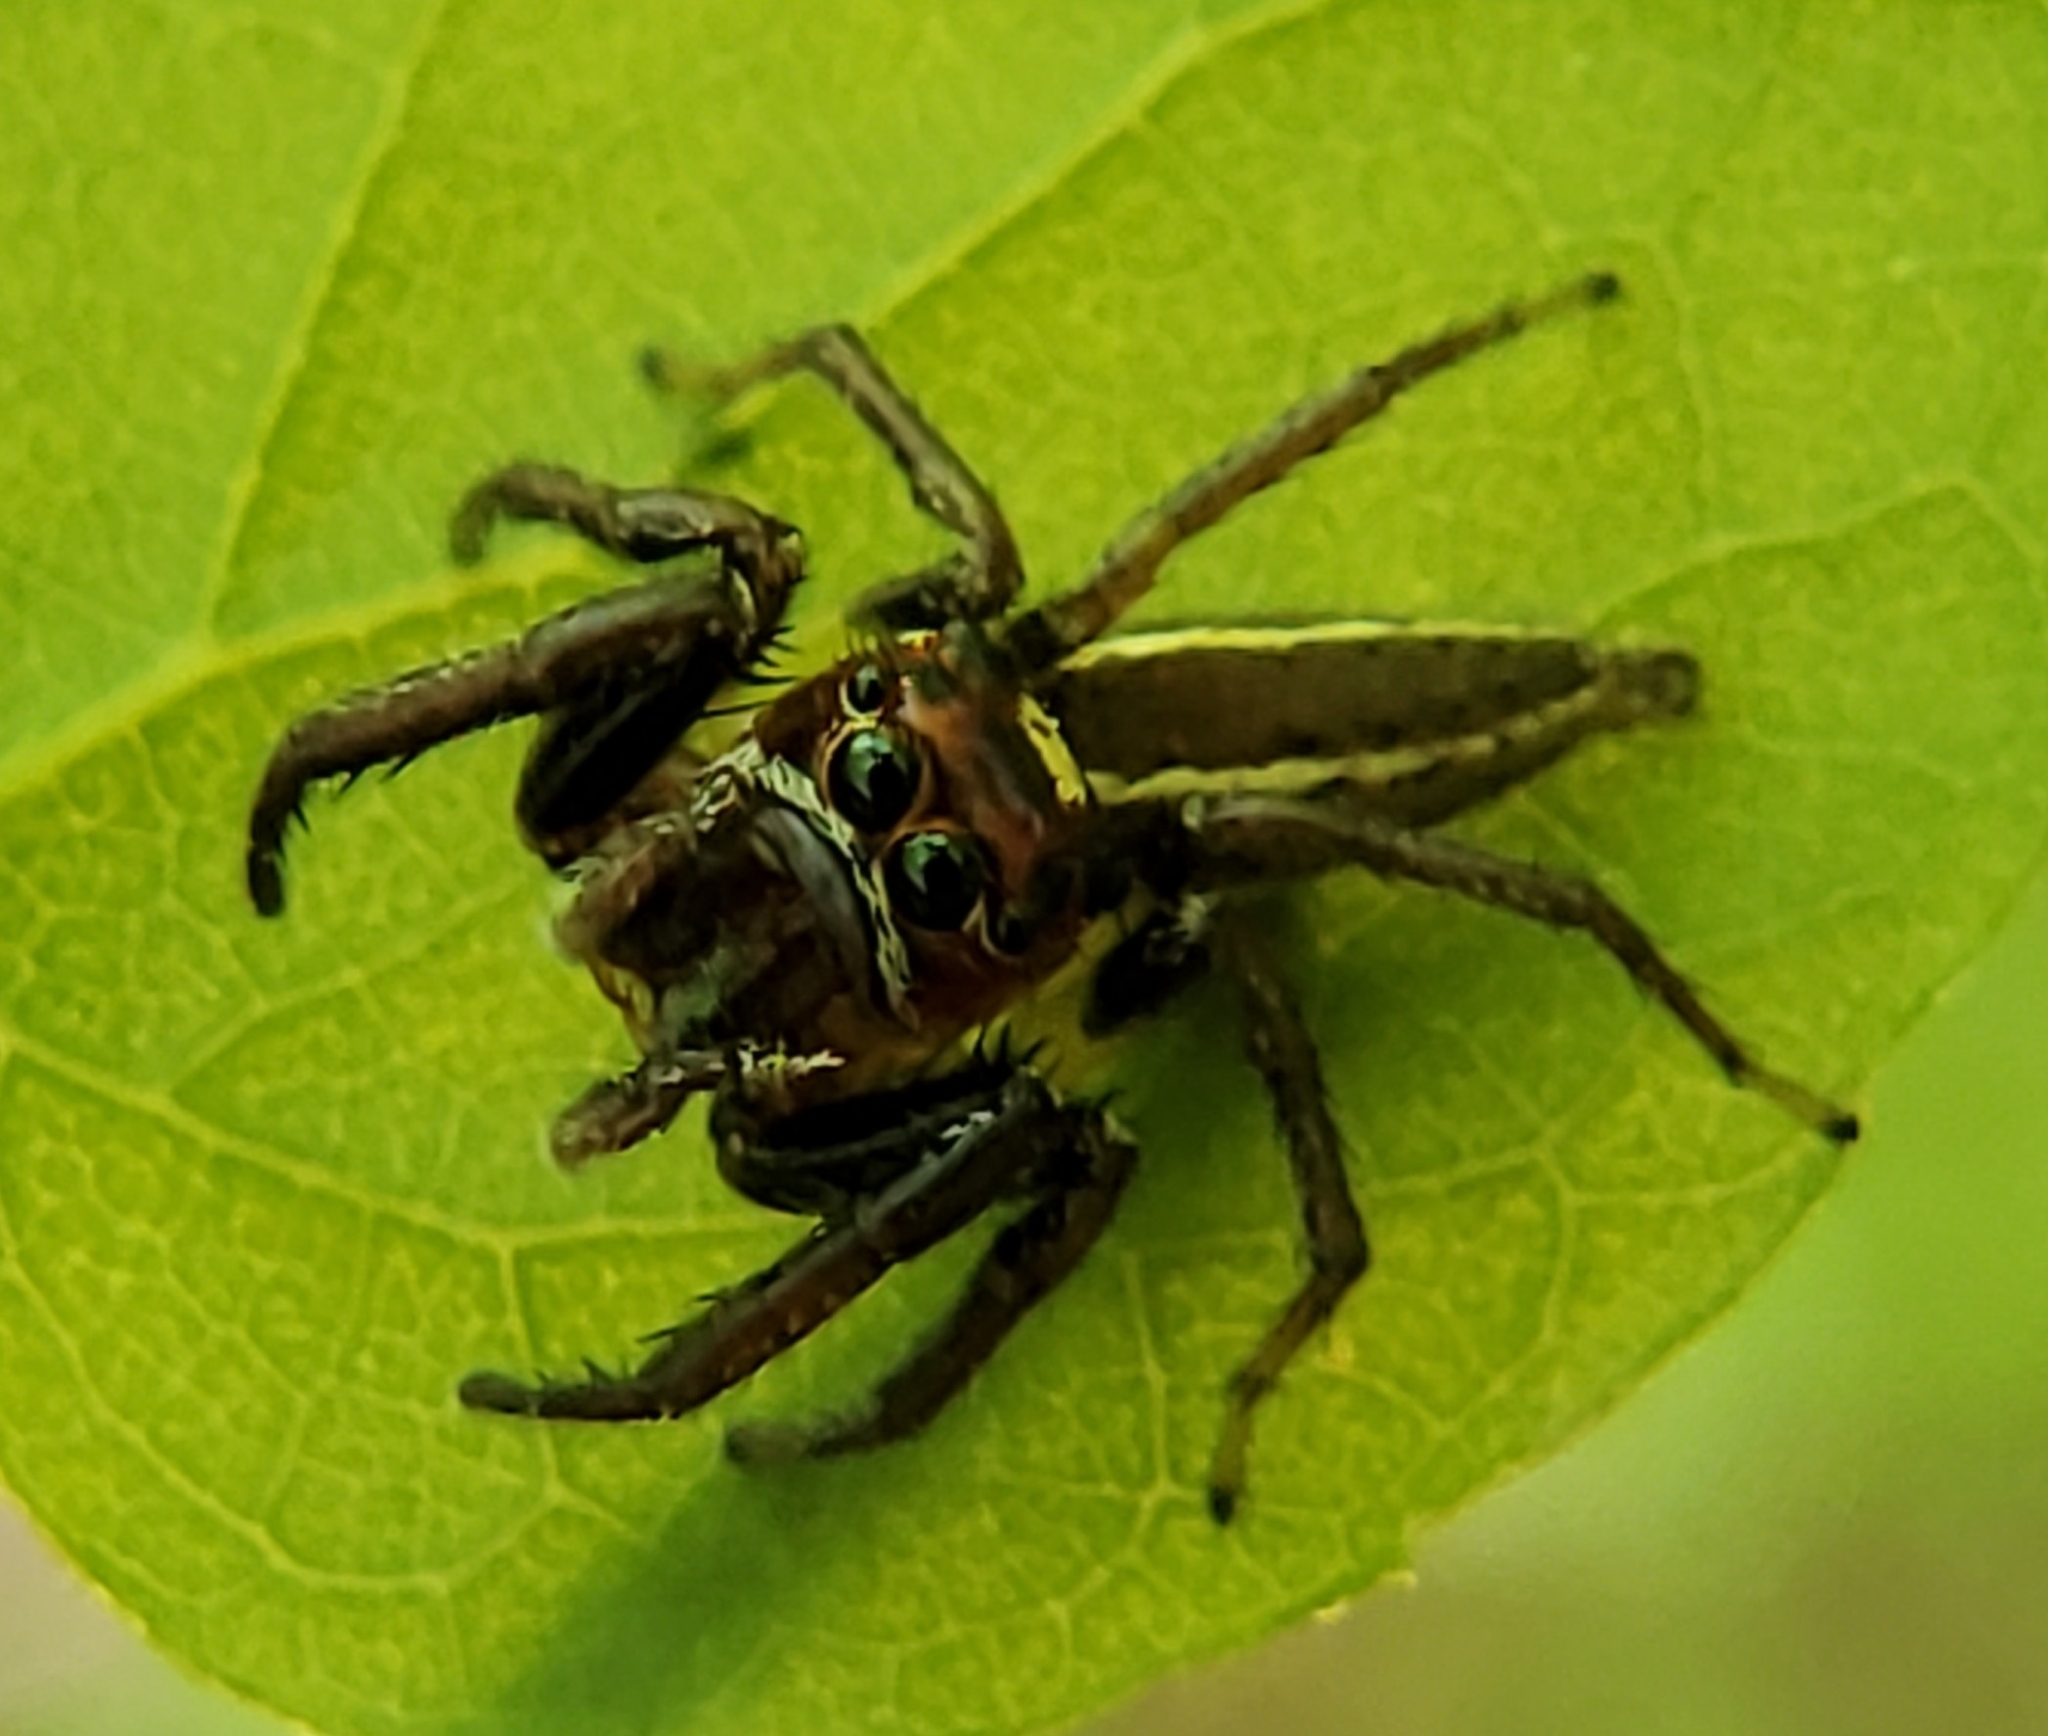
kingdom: Animalia
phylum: Arthropoda
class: Arachnida
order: Araneae
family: Salticidae
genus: Colonus
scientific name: Colonus sylvanus
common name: Jumping spiders
